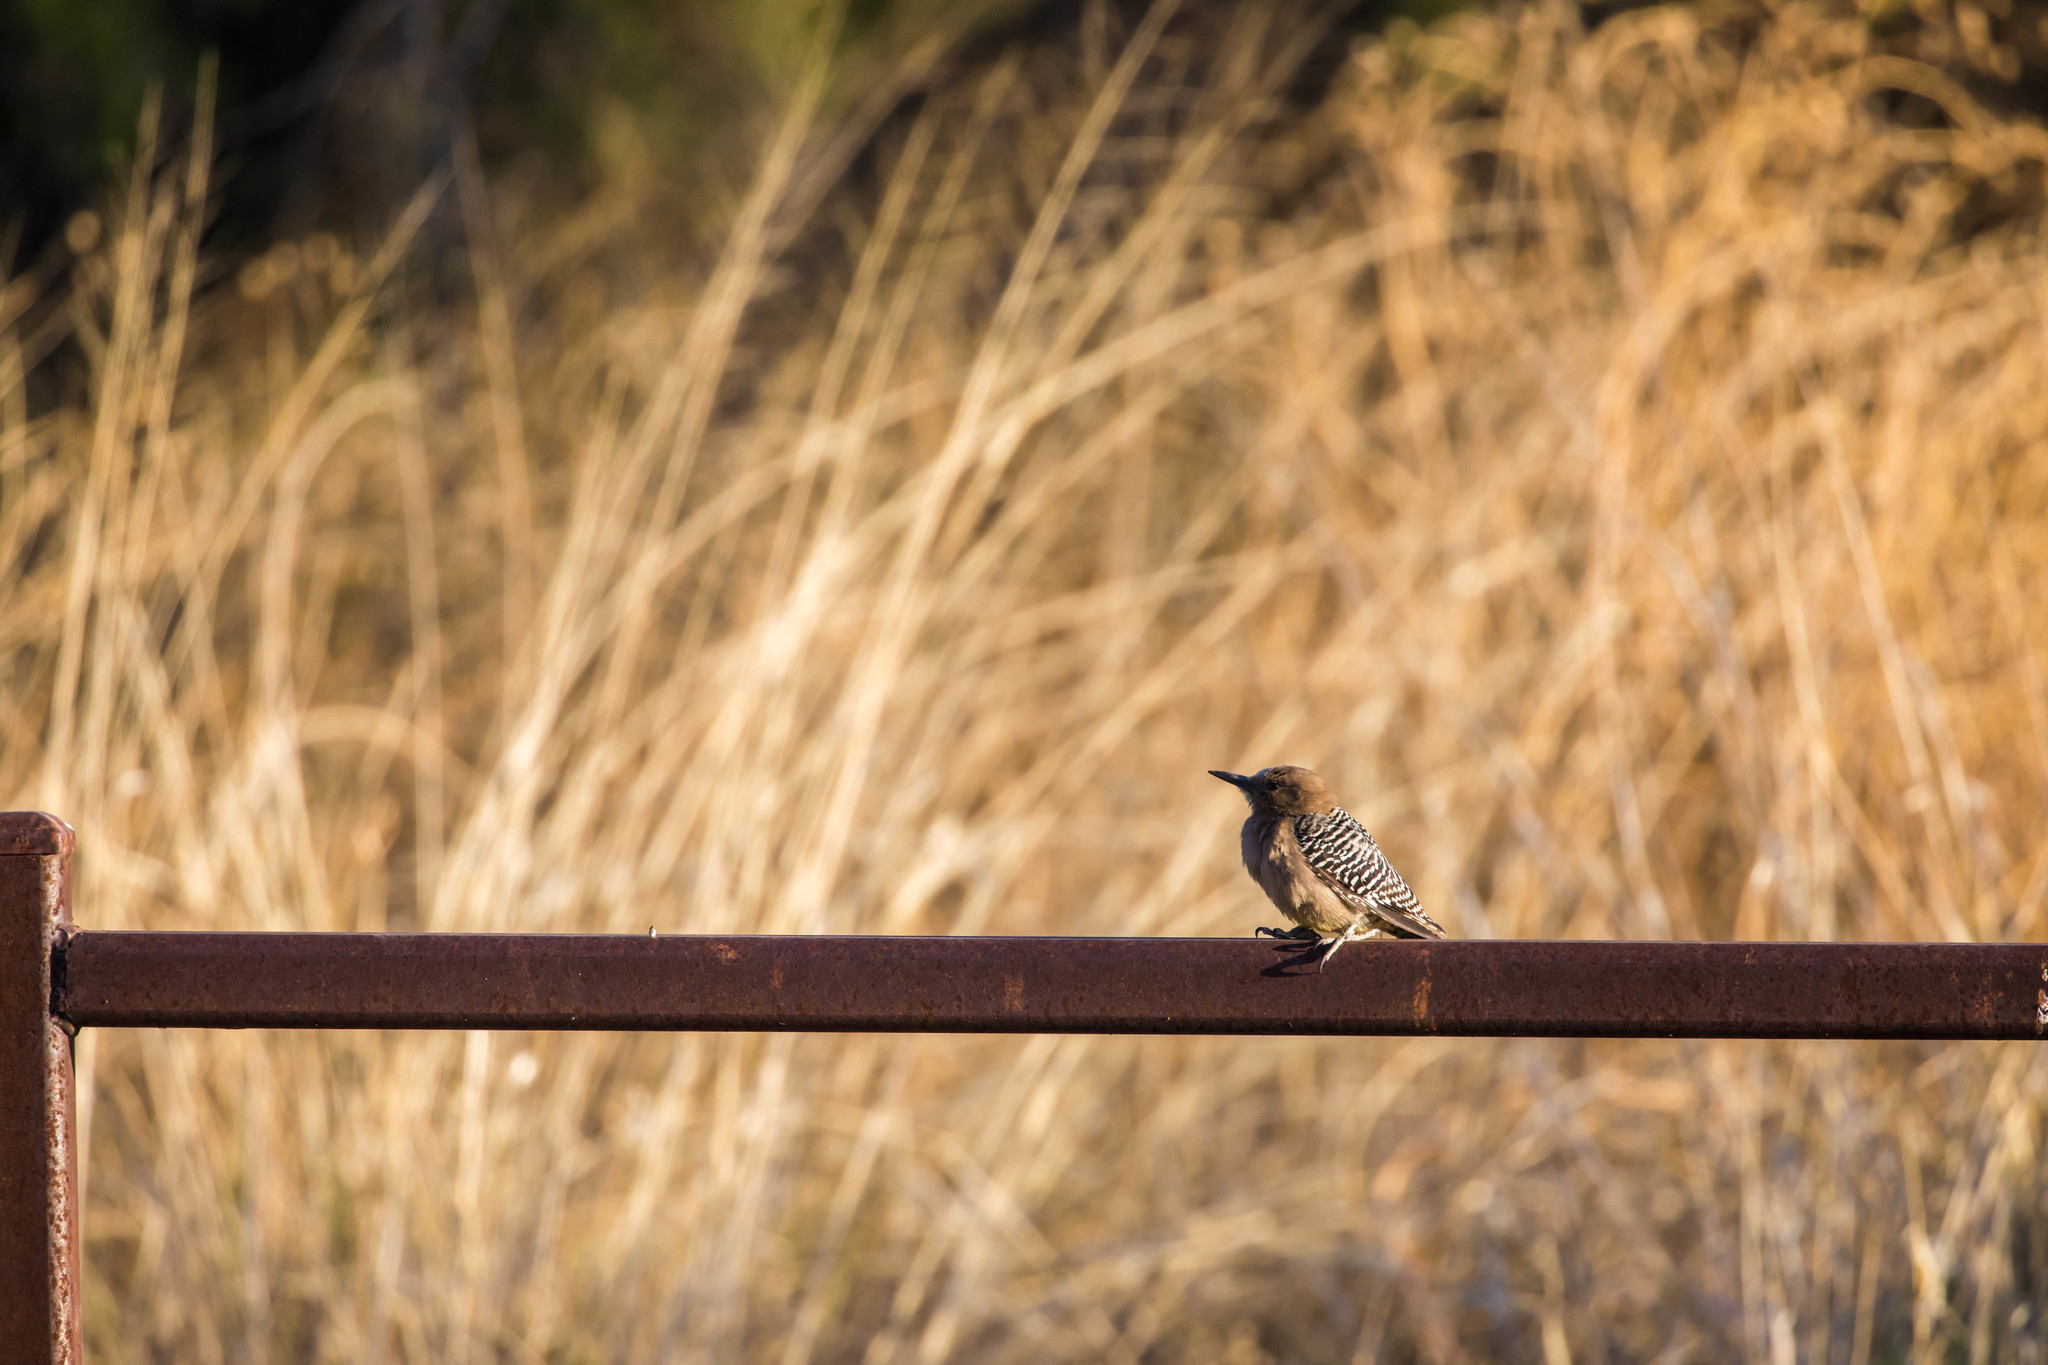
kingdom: Animalia
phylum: Chordata
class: Aves
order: Piciformes
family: Picidae
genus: Melanerpes
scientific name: Melanerpes uropygialis
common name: Gila woodpecker
